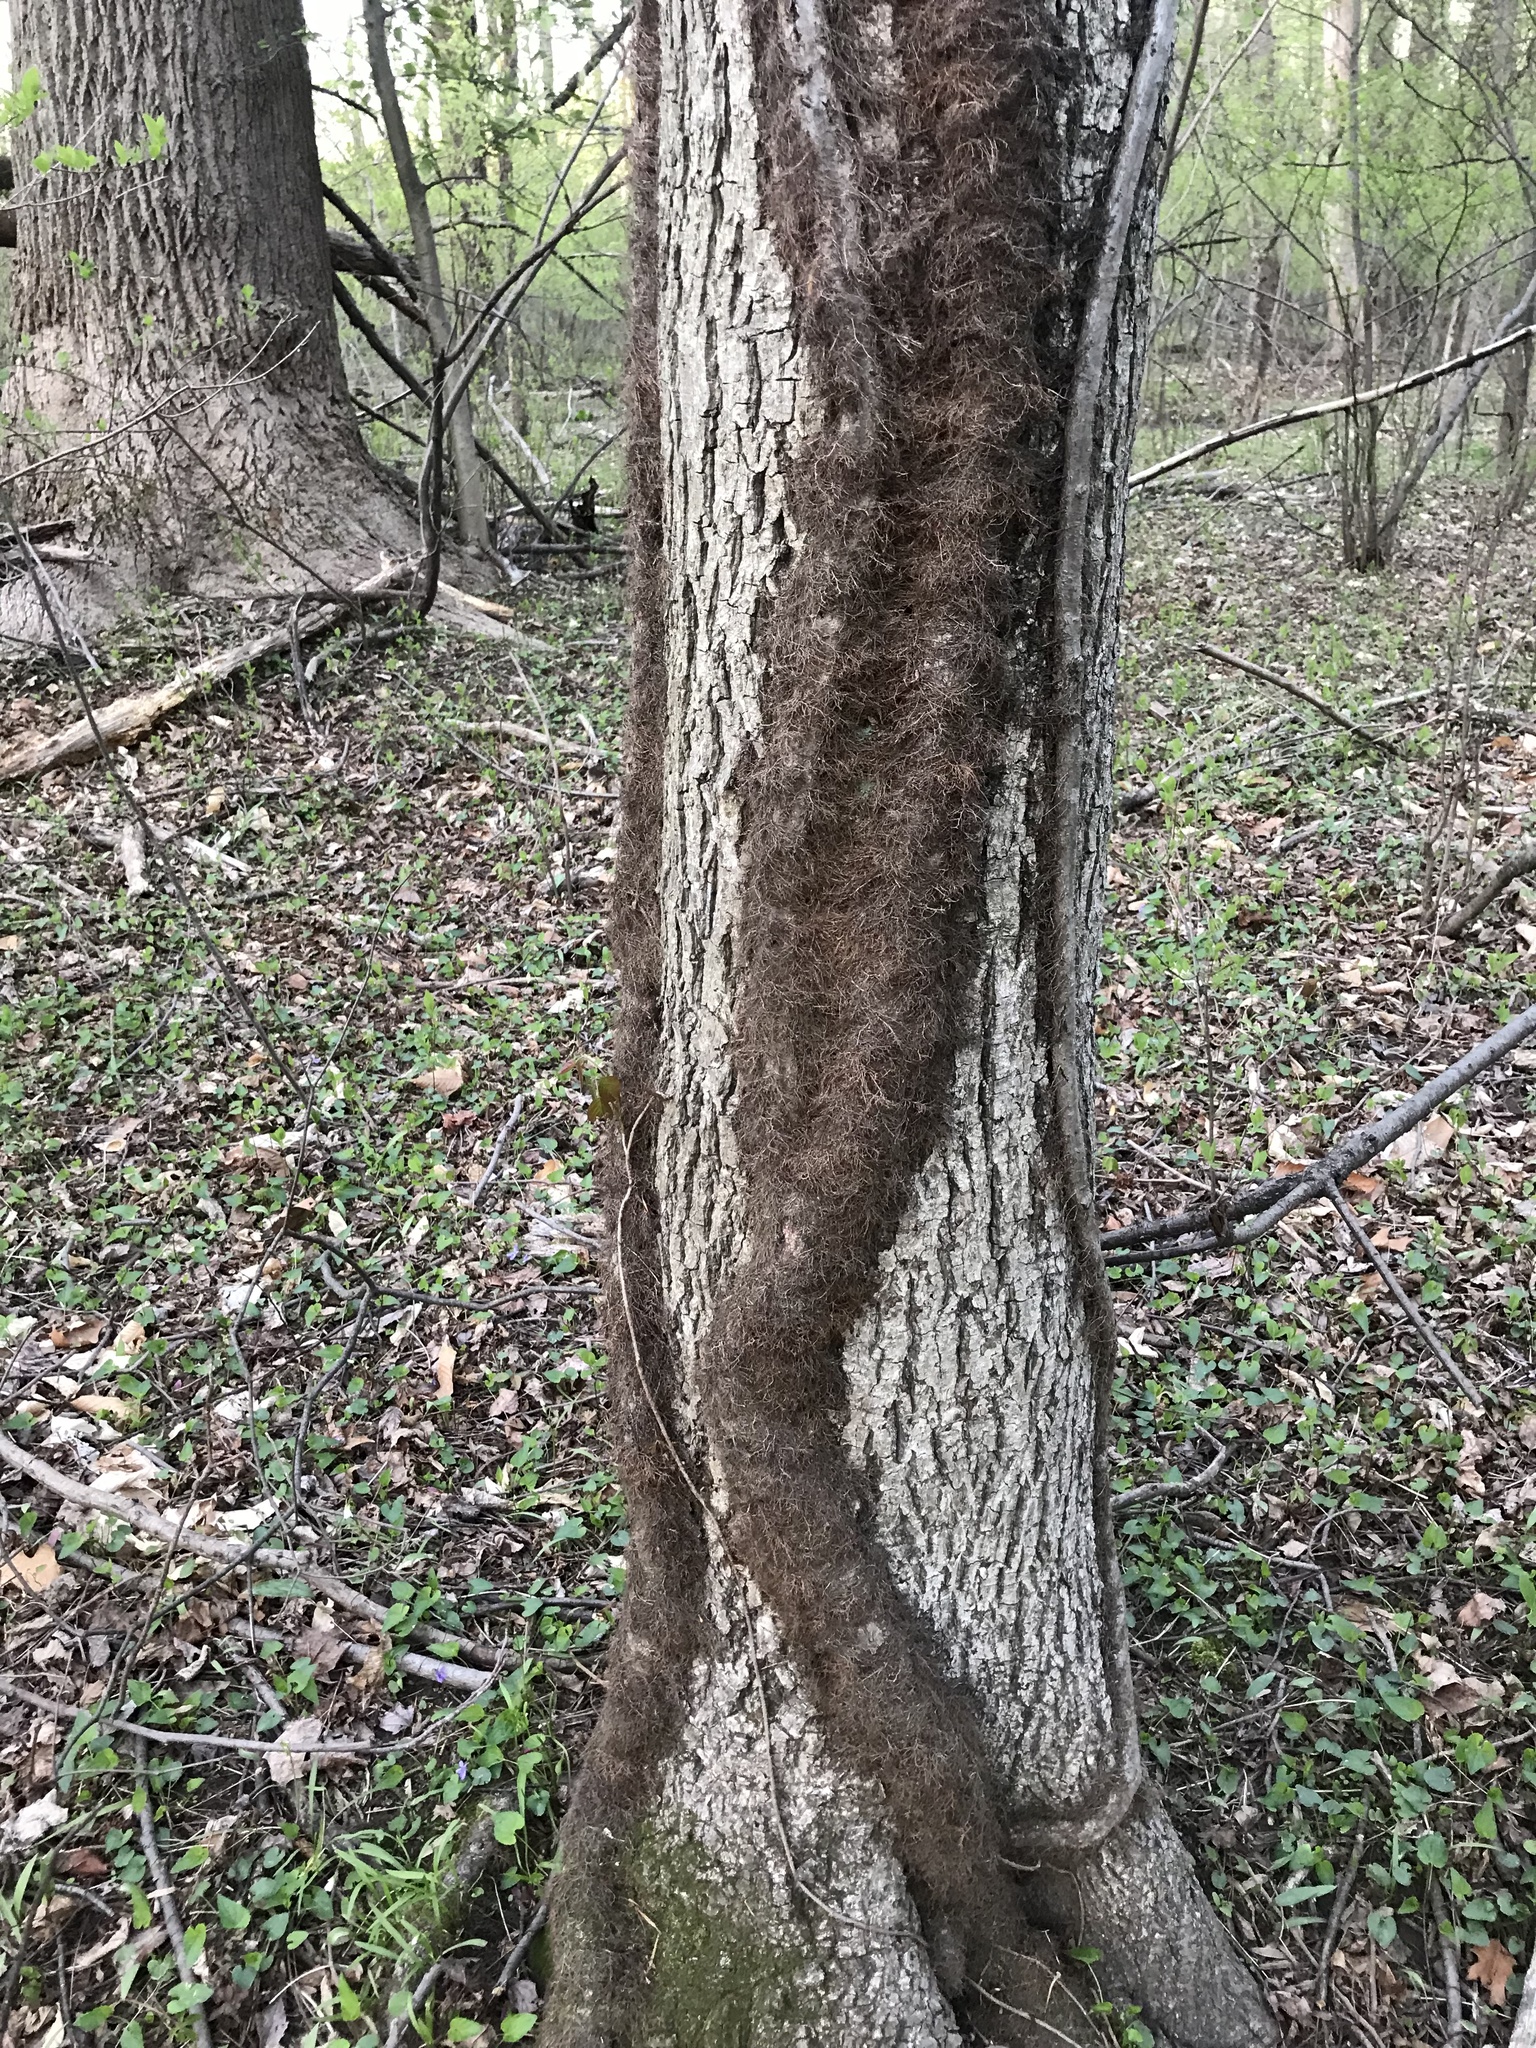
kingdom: Plantae
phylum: Tracheophyta
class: Magnoliopsida
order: Sapindales
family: Anacardiaceae
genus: Toxicodendron
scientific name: Toxicodendron radicans
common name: Poison ivy
